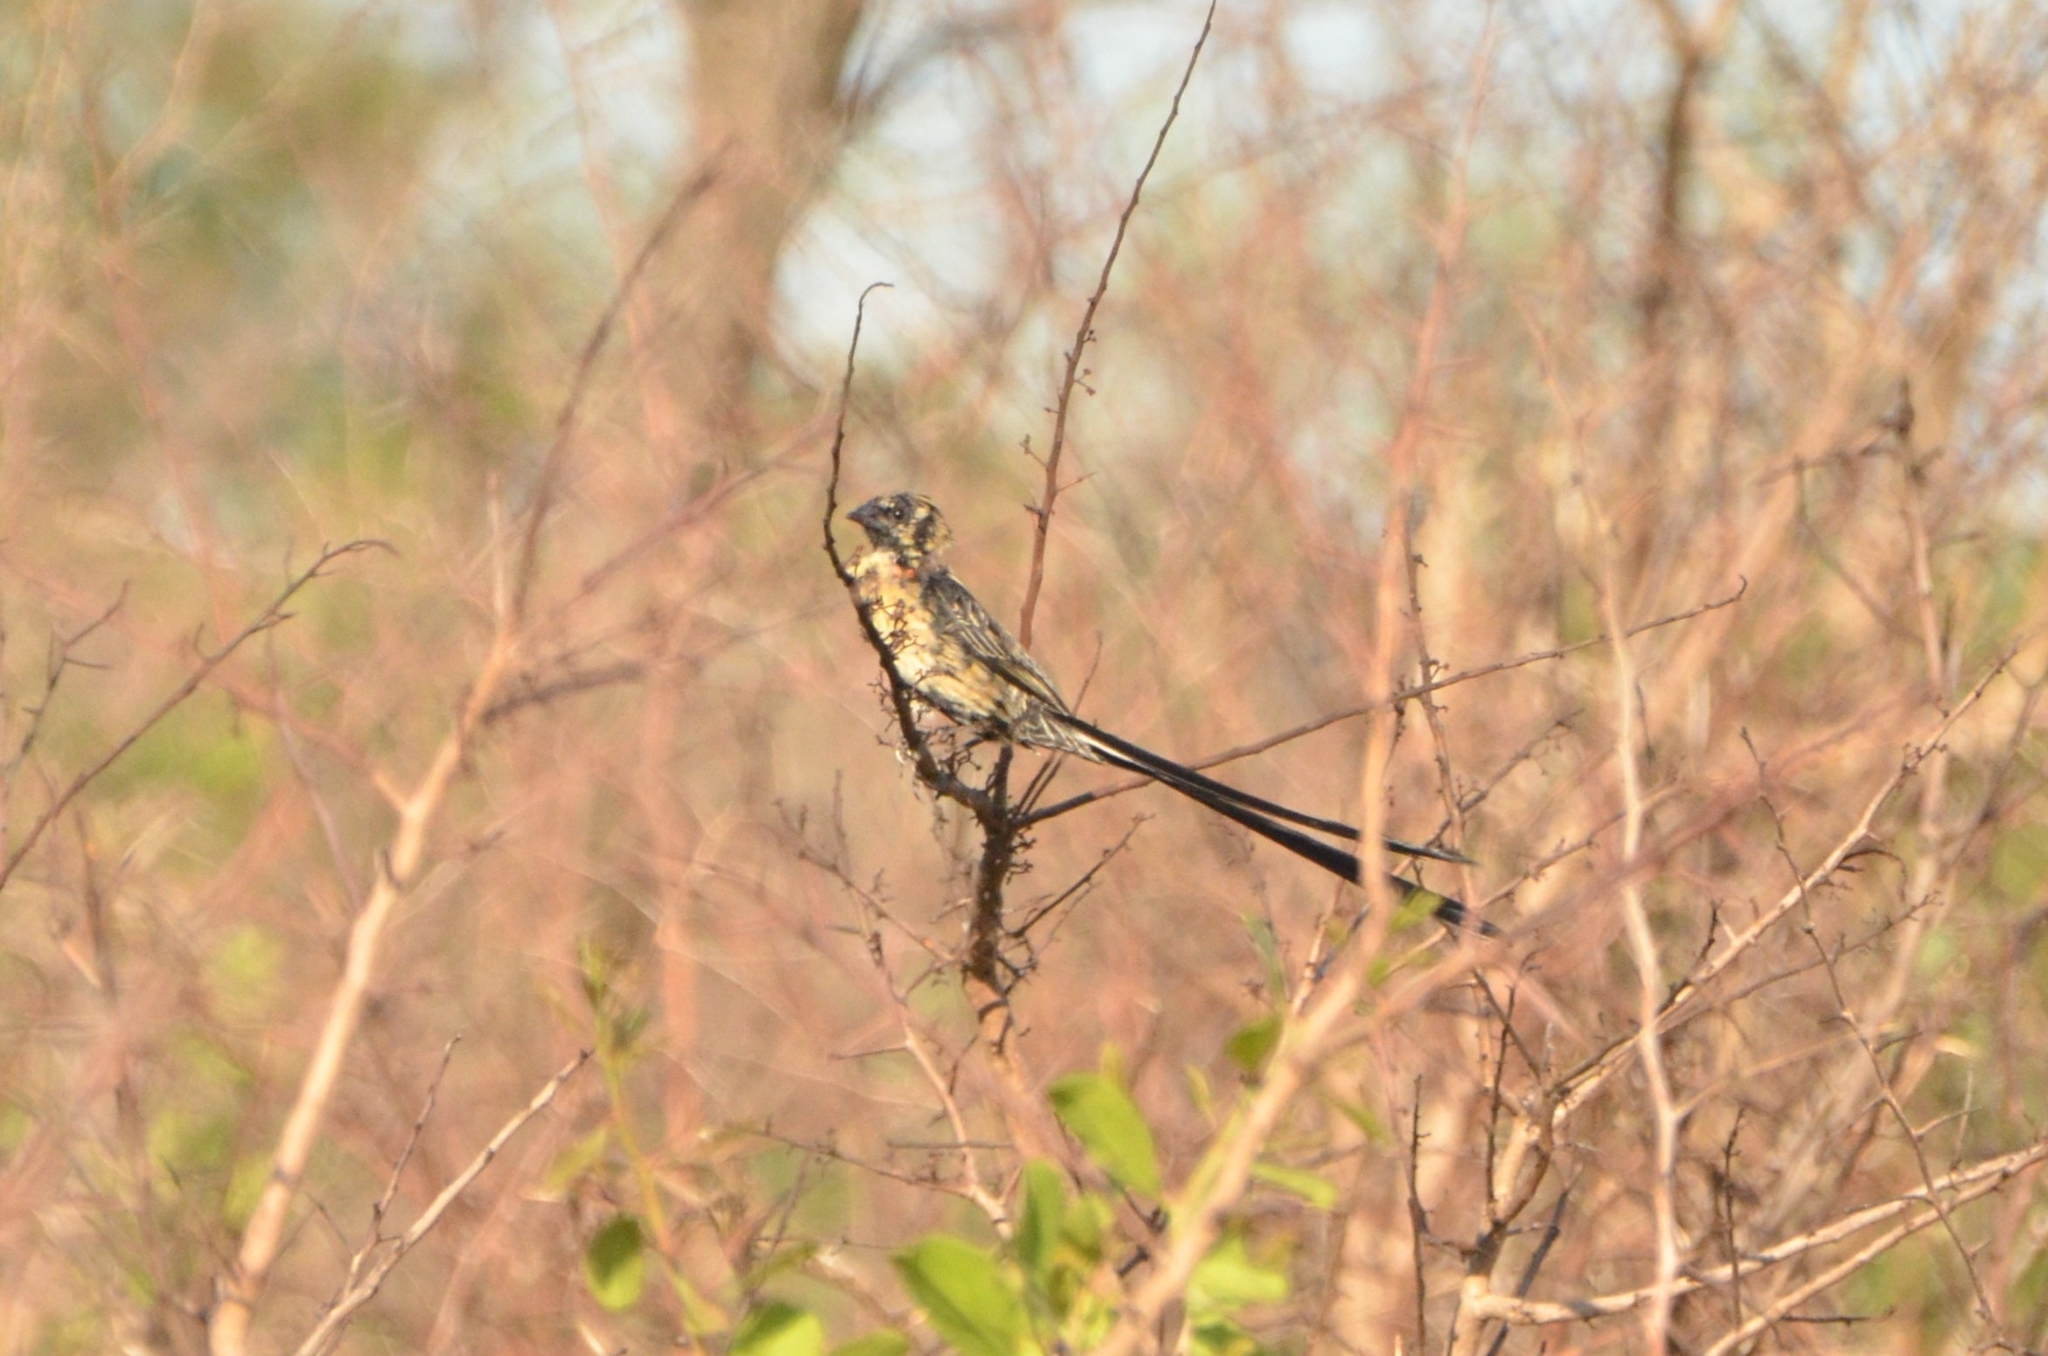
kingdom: Animalia
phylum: Chordata
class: Aves
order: Passeriformes
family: Ploceidae
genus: Euplectes
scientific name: Euplectes ardens
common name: Red-collared widowbird
